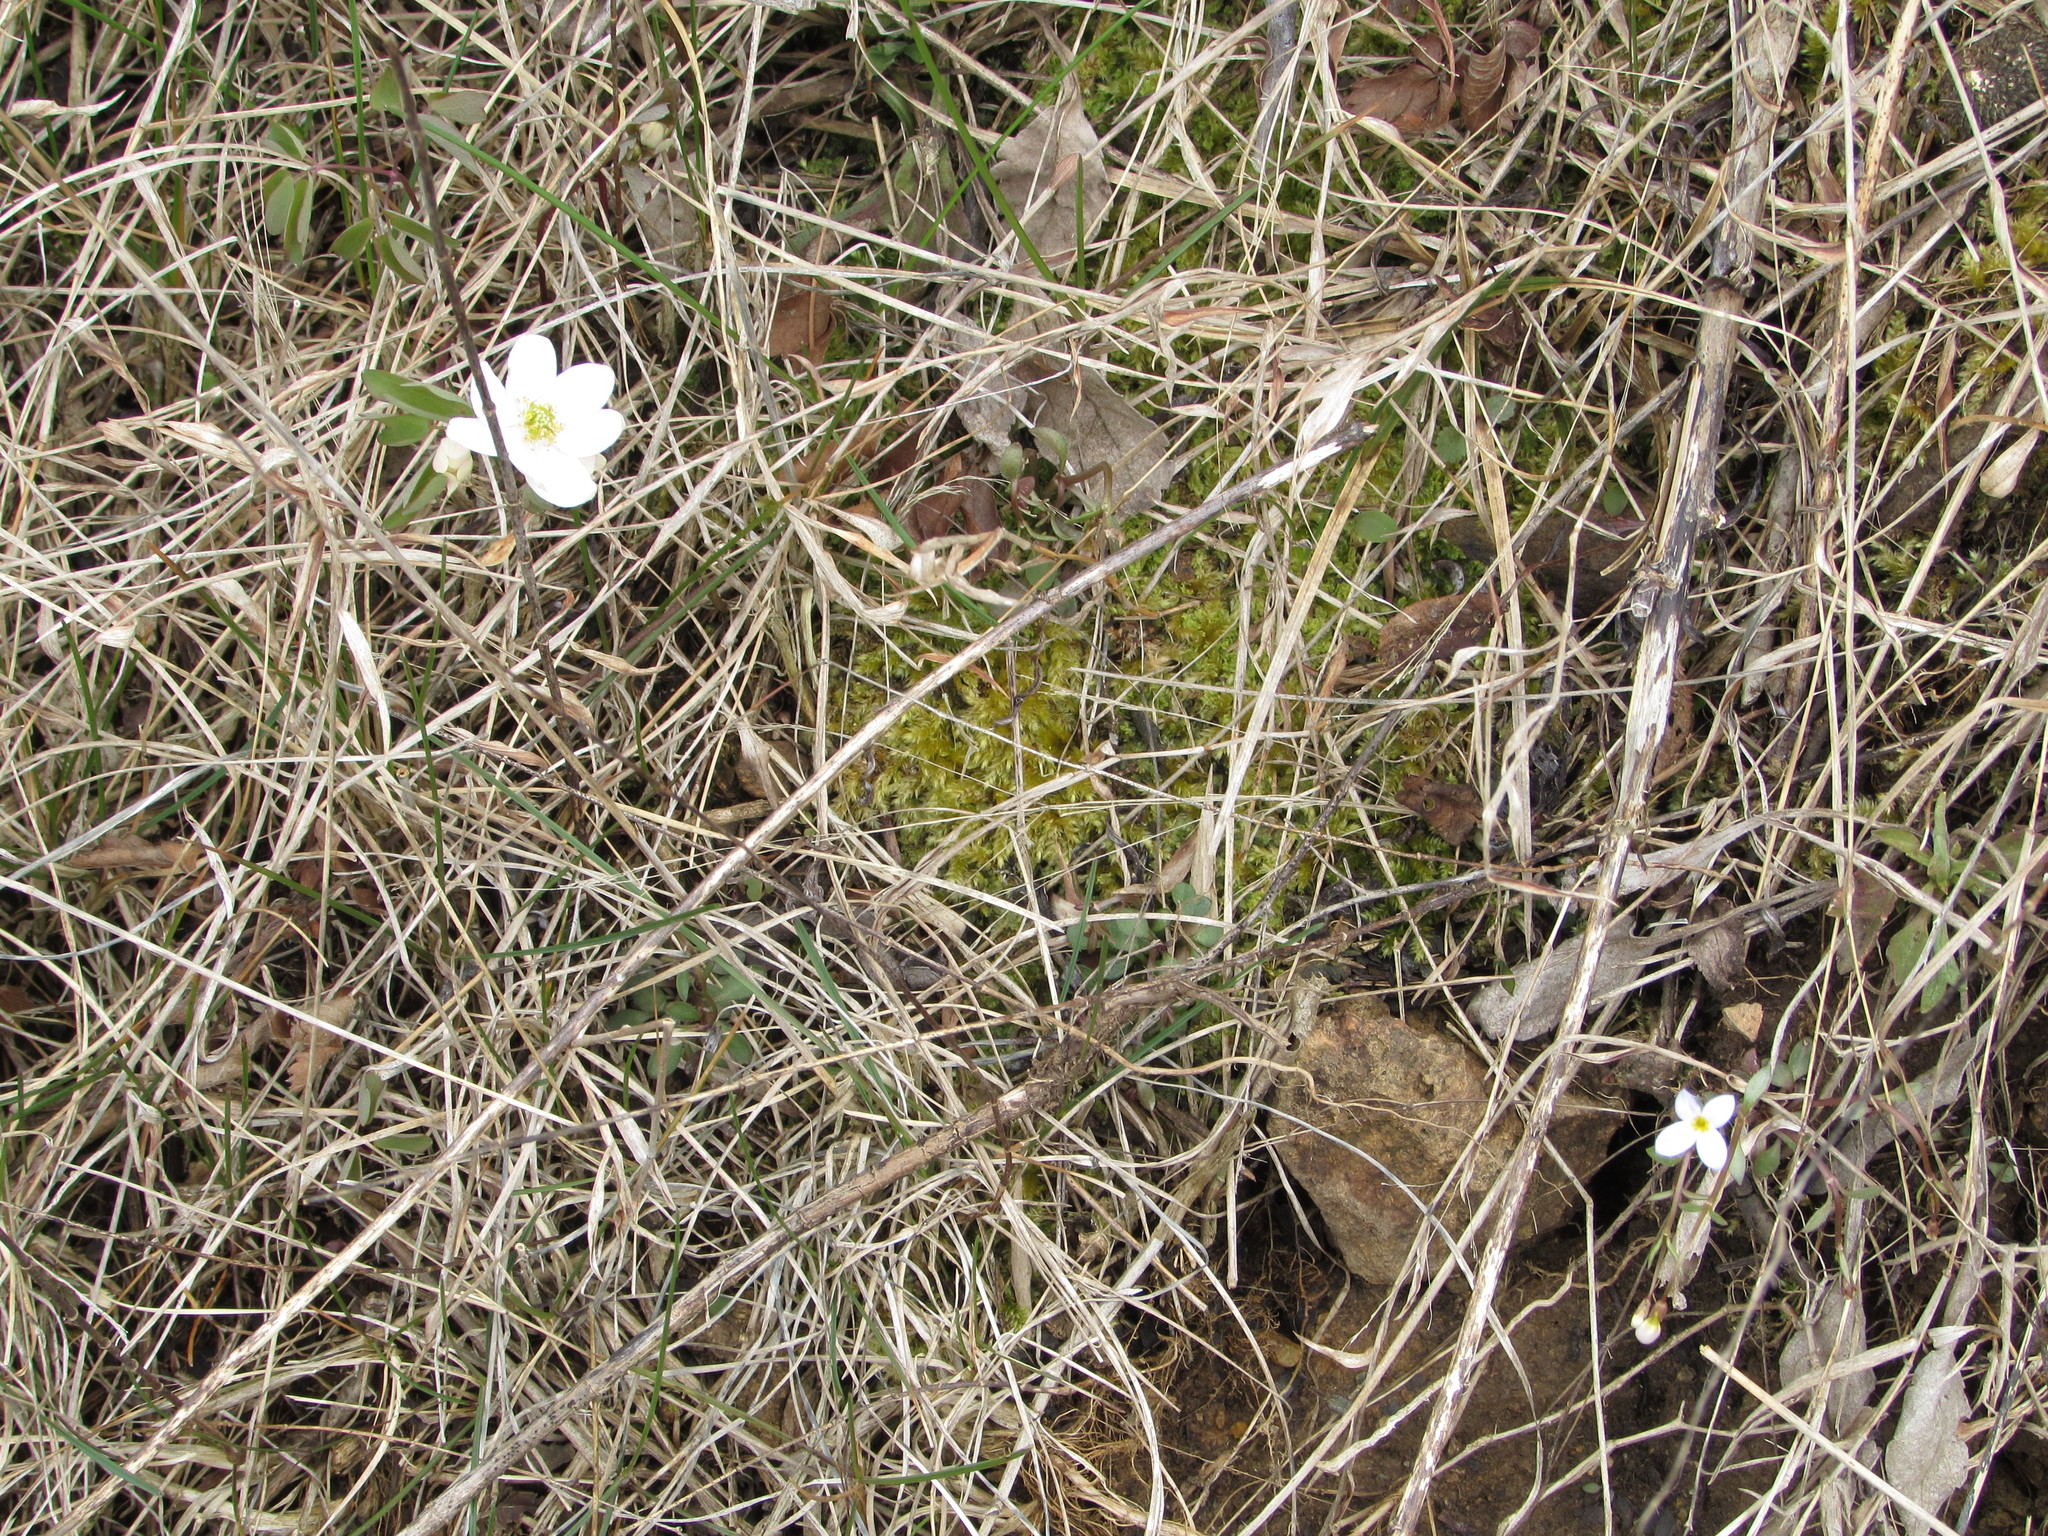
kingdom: Plantae
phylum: Tracheophyta
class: Magnoliopsida
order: Gentianales
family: Rubiaceae
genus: Houstonia
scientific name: Houstonia caerulea
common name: Bluets
